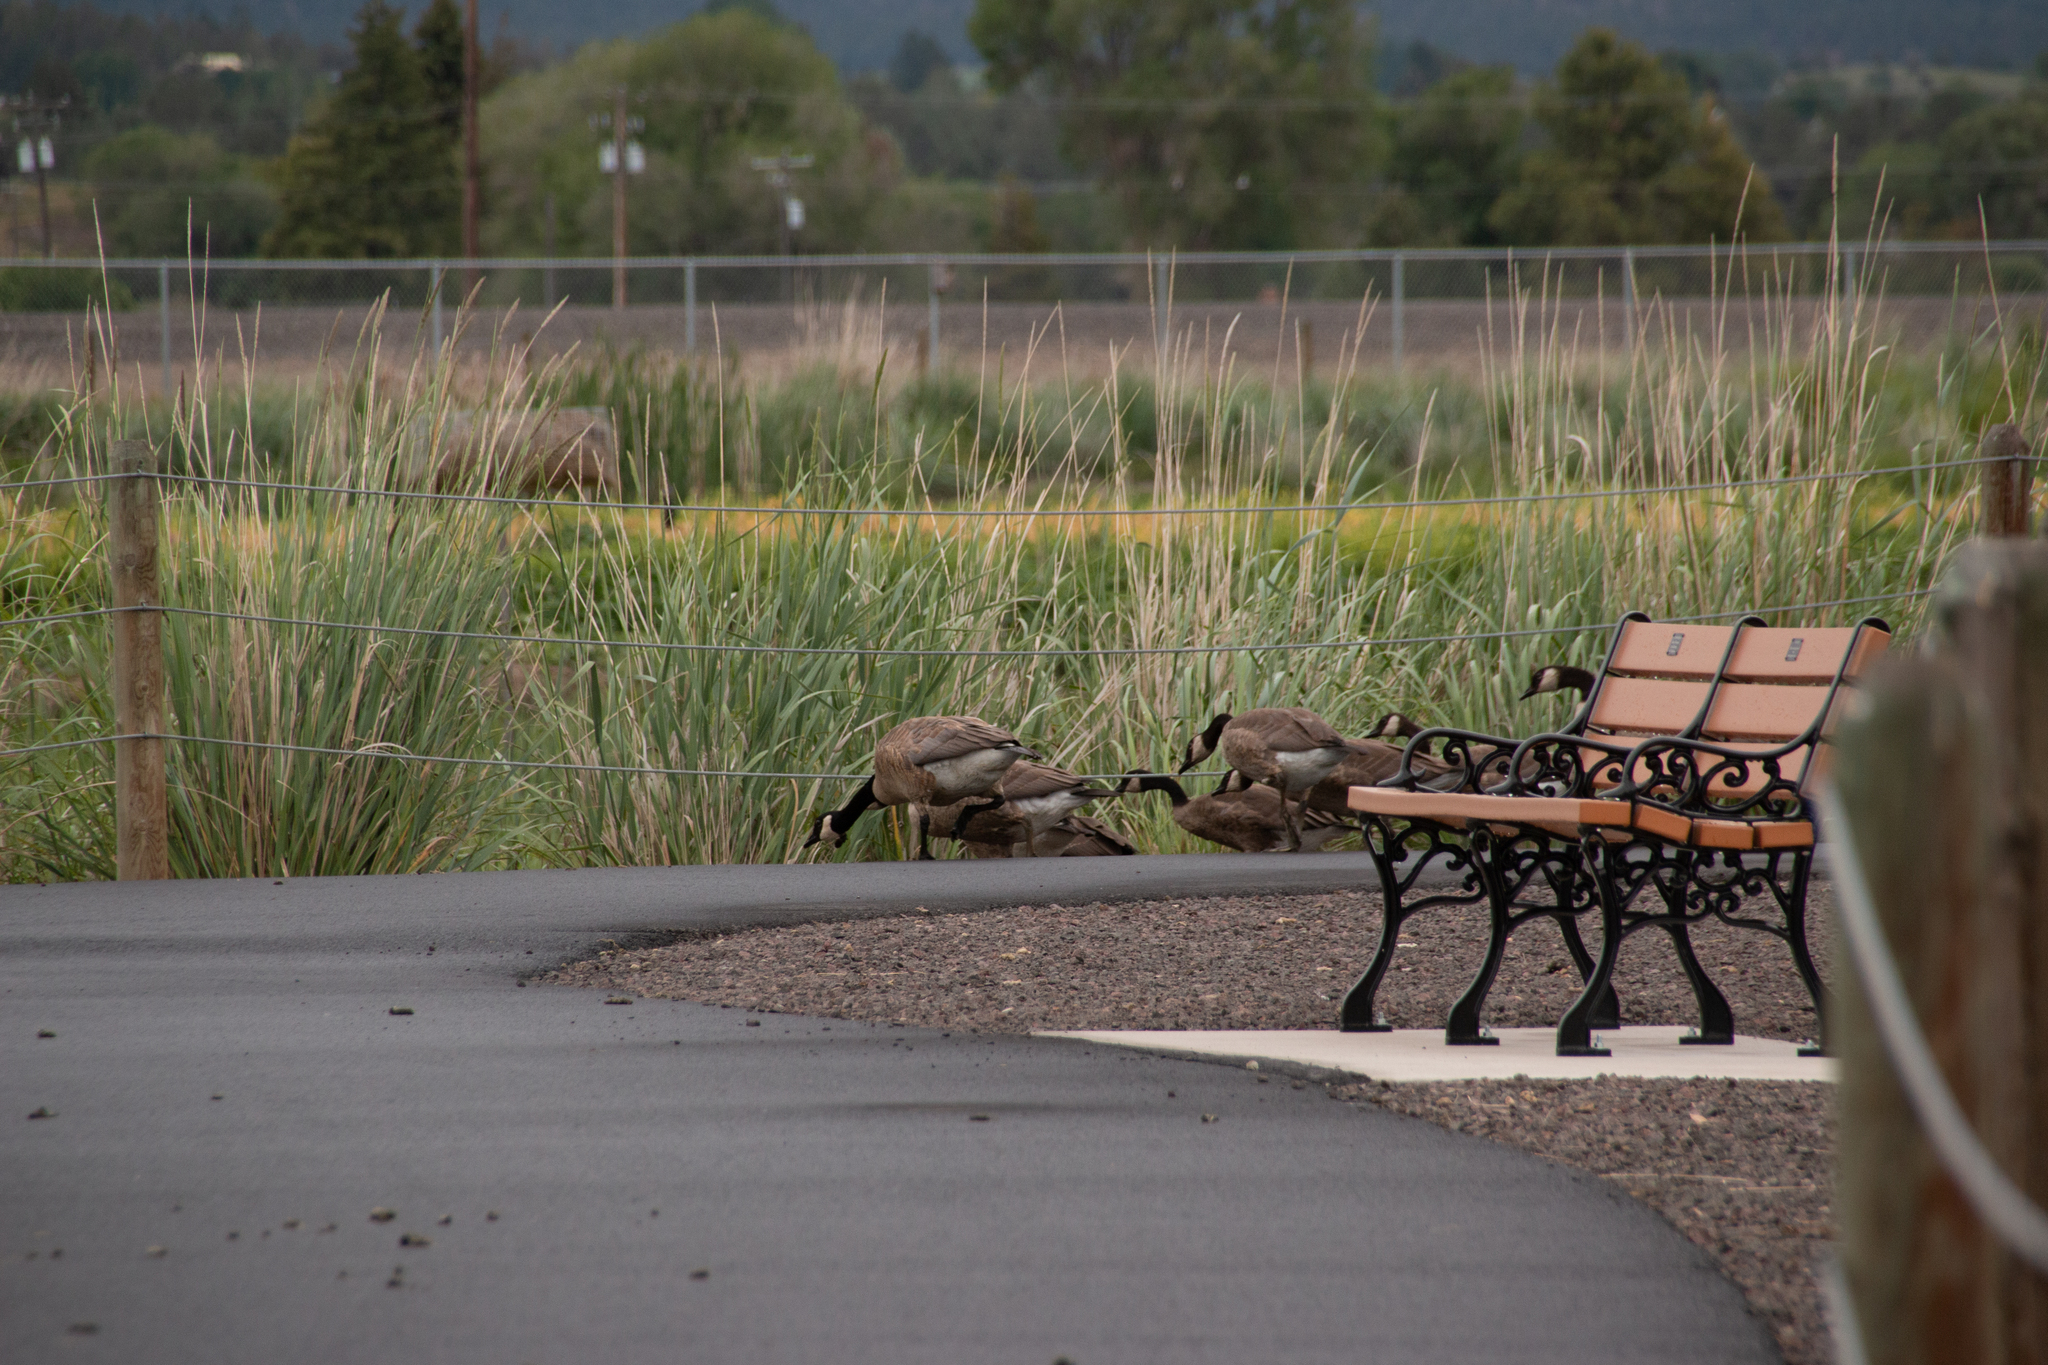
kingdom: Animalia
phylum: Chordata
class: Aves
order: Anseriformes
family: Anatidae
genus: Branta
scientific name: Branta canadensis
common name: Canada goose
